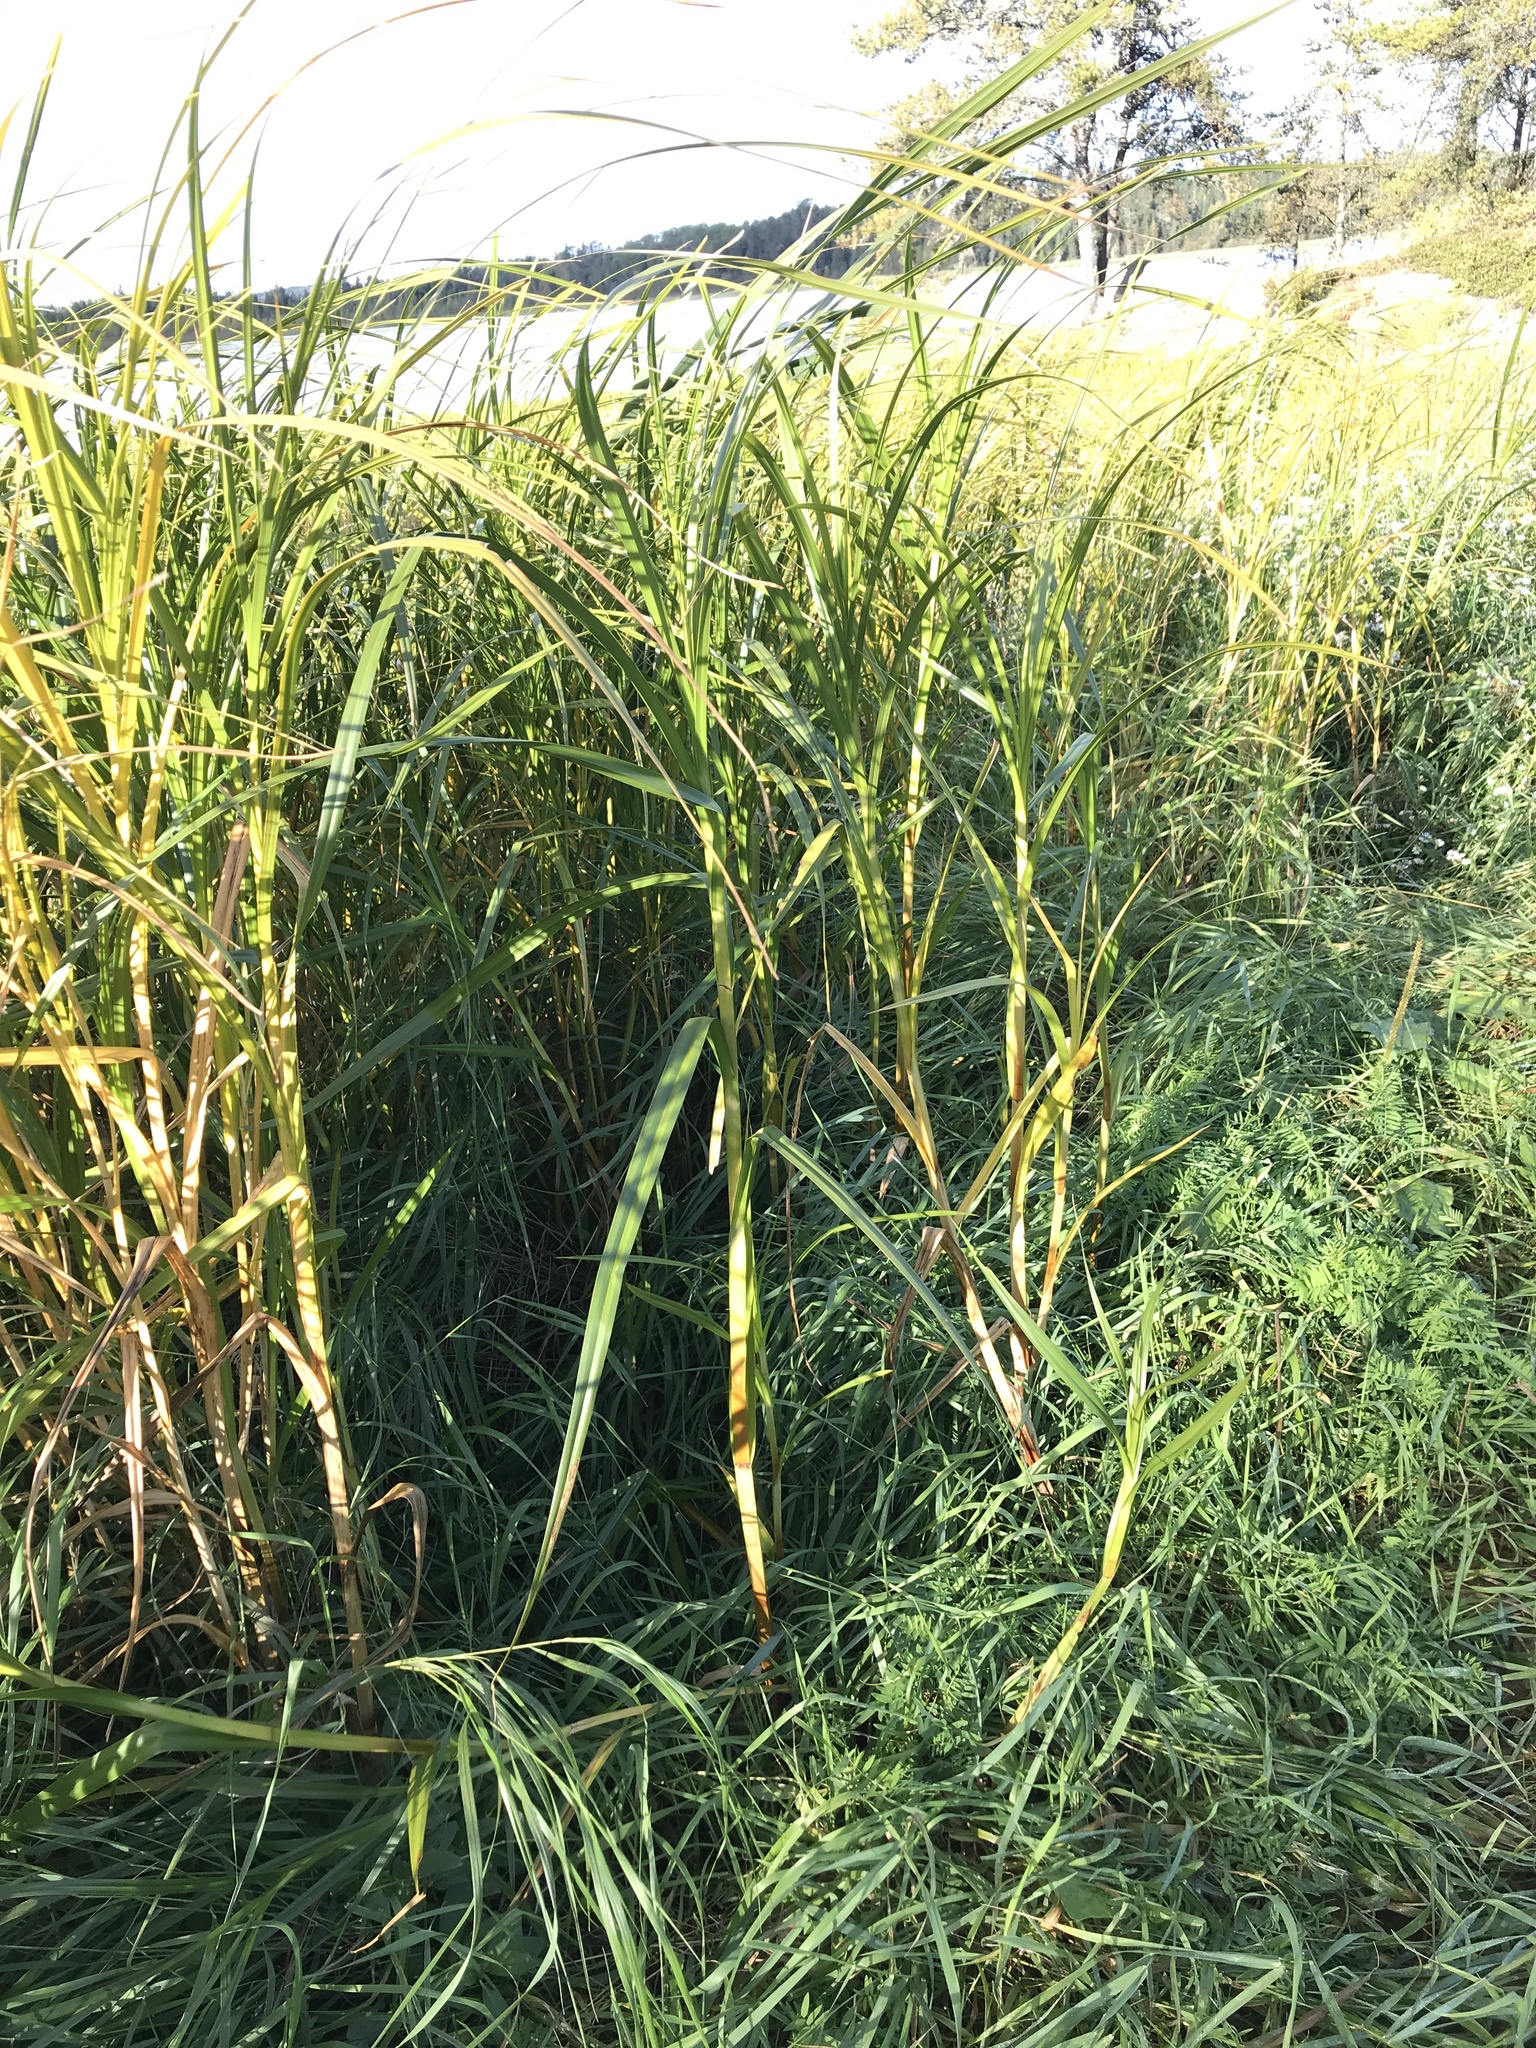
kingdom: Plantae
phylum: Tracheophyta
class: Liliopsida
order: Poales
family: Cyperaceae
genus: Bolboschoenus
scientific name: Bolboschoenus fluviatilis
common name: River bulrush
